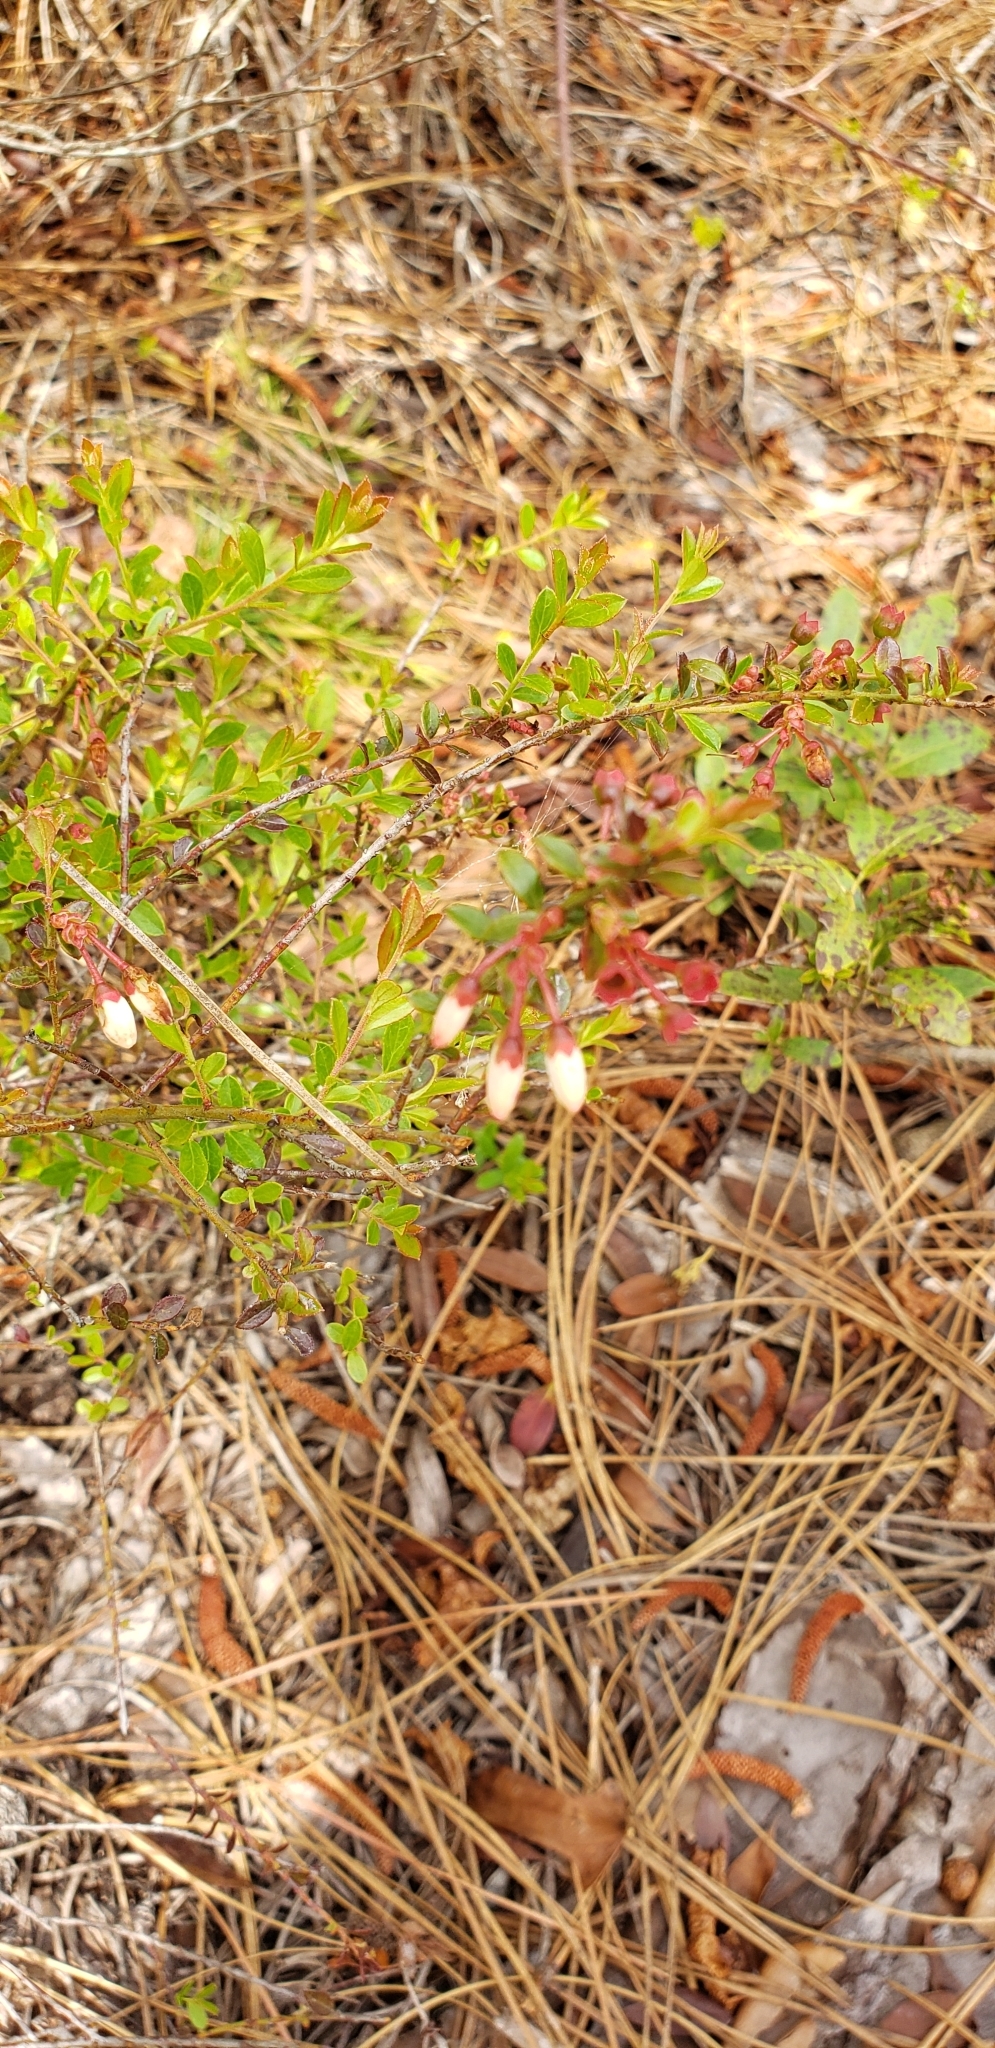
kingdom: Plantae
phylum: Tracheophyta
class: Magnoliopsida
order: Ericales
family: Ericaceae
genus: Vaccinium
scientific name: Vaccinium myrsinites
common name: Evergreen blueberry
